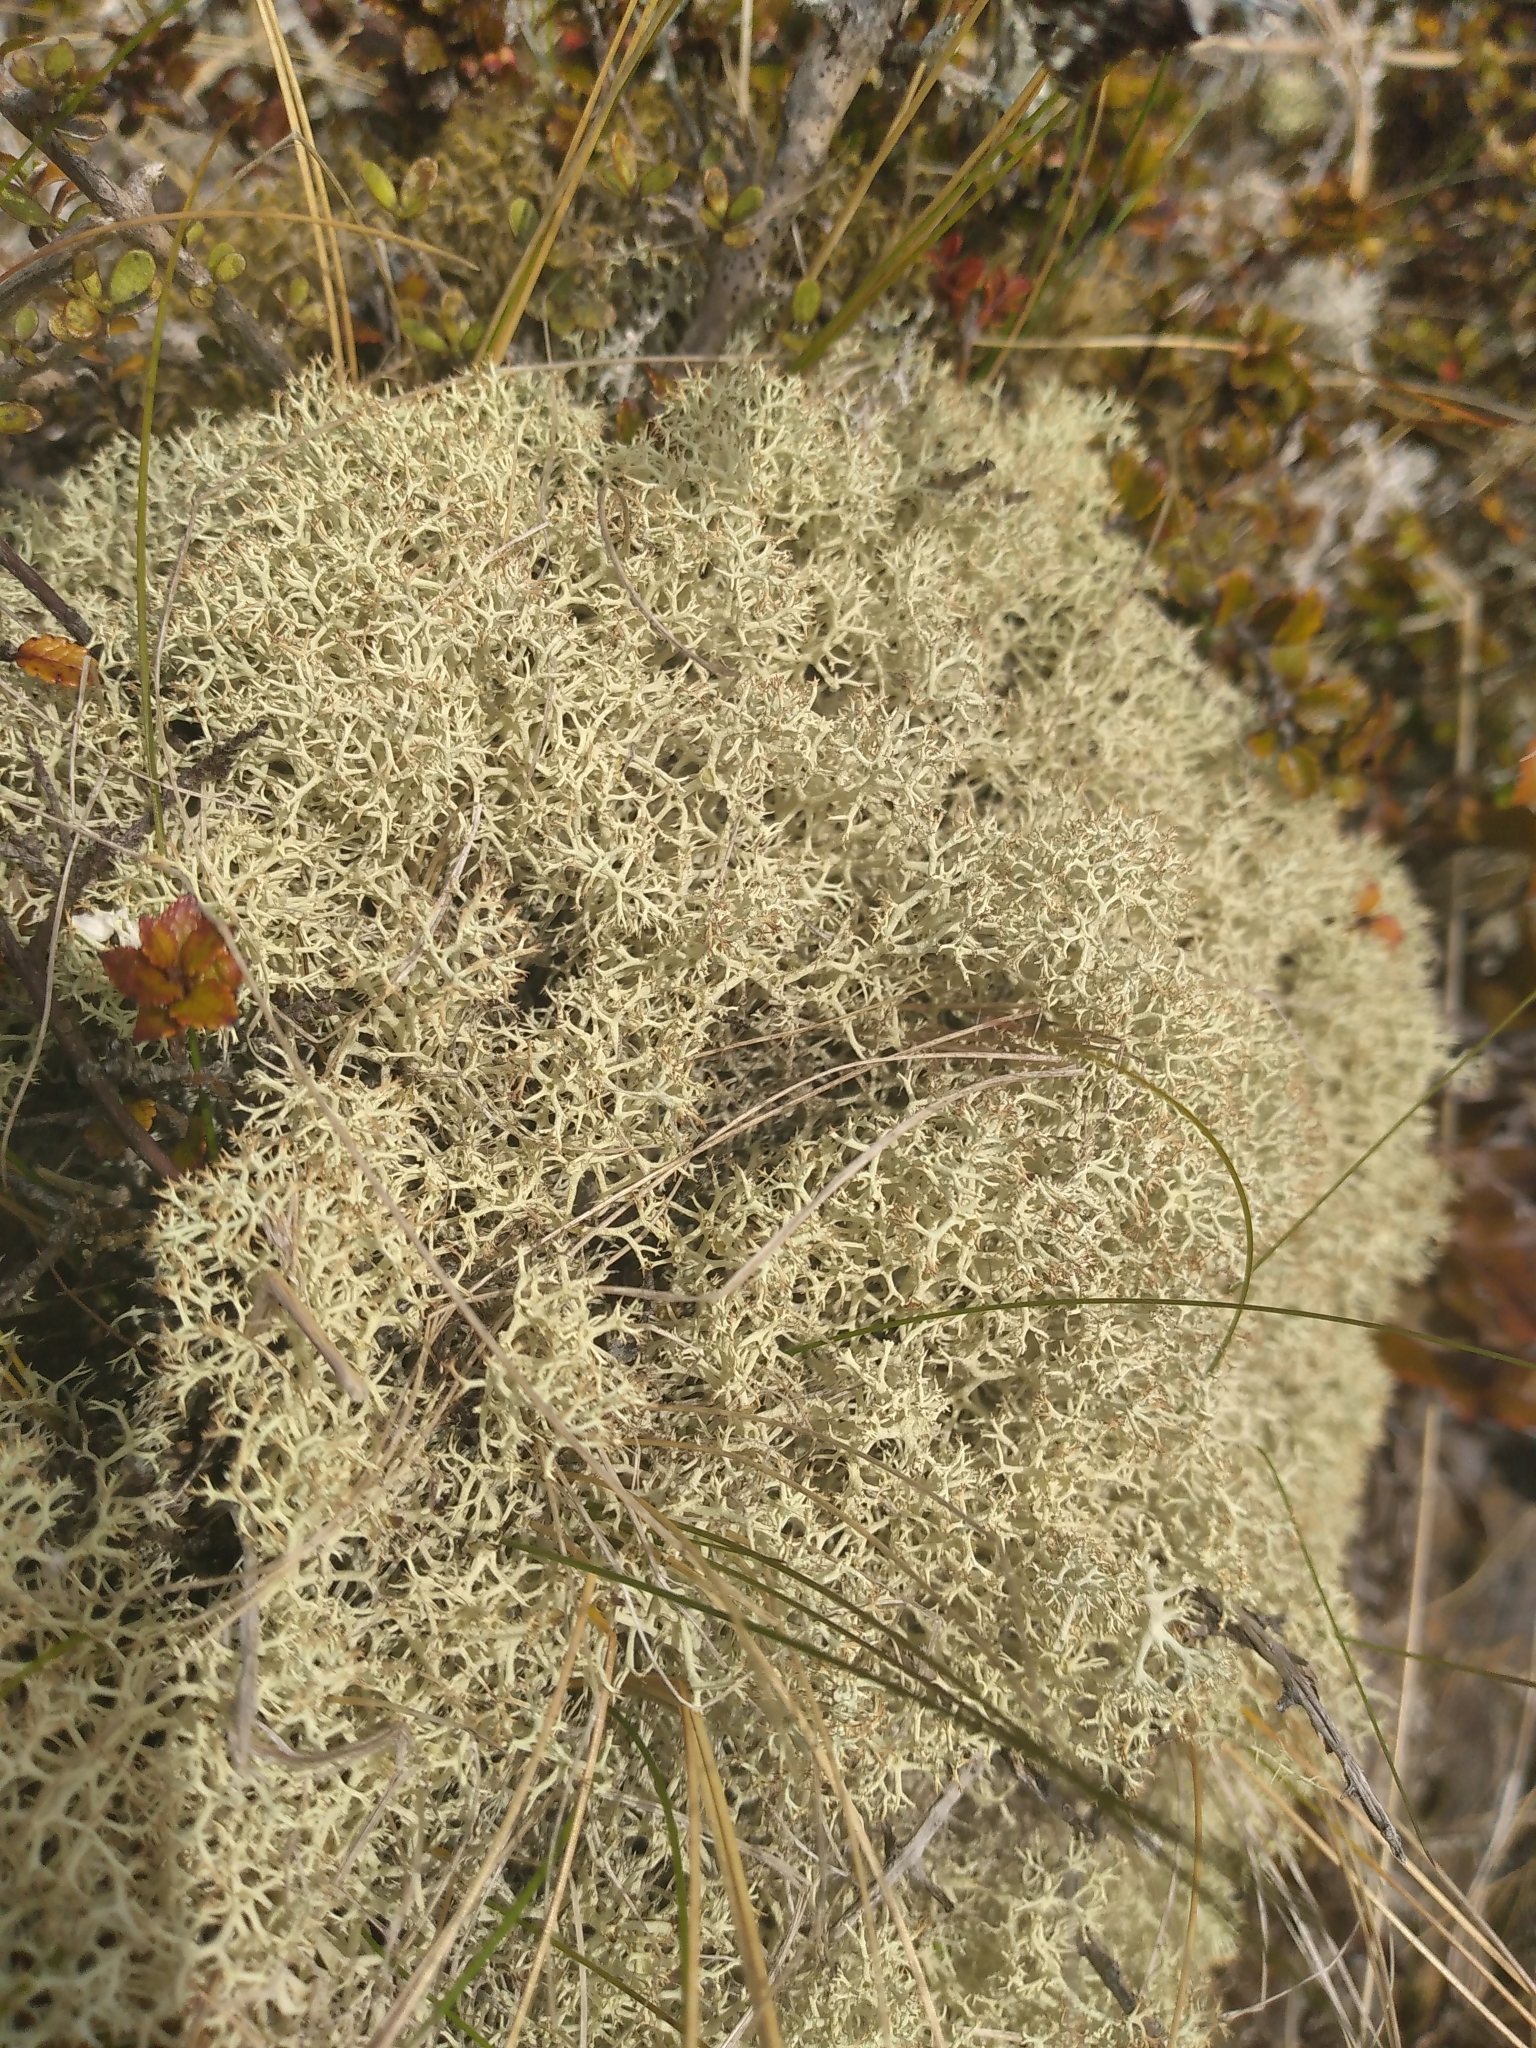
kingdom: Fungi
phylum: Ascomycota
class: Lecanoromycetes
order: Lecanorales
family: Cladoniaceae
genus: Cladonia
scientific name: Cladonia confusa
